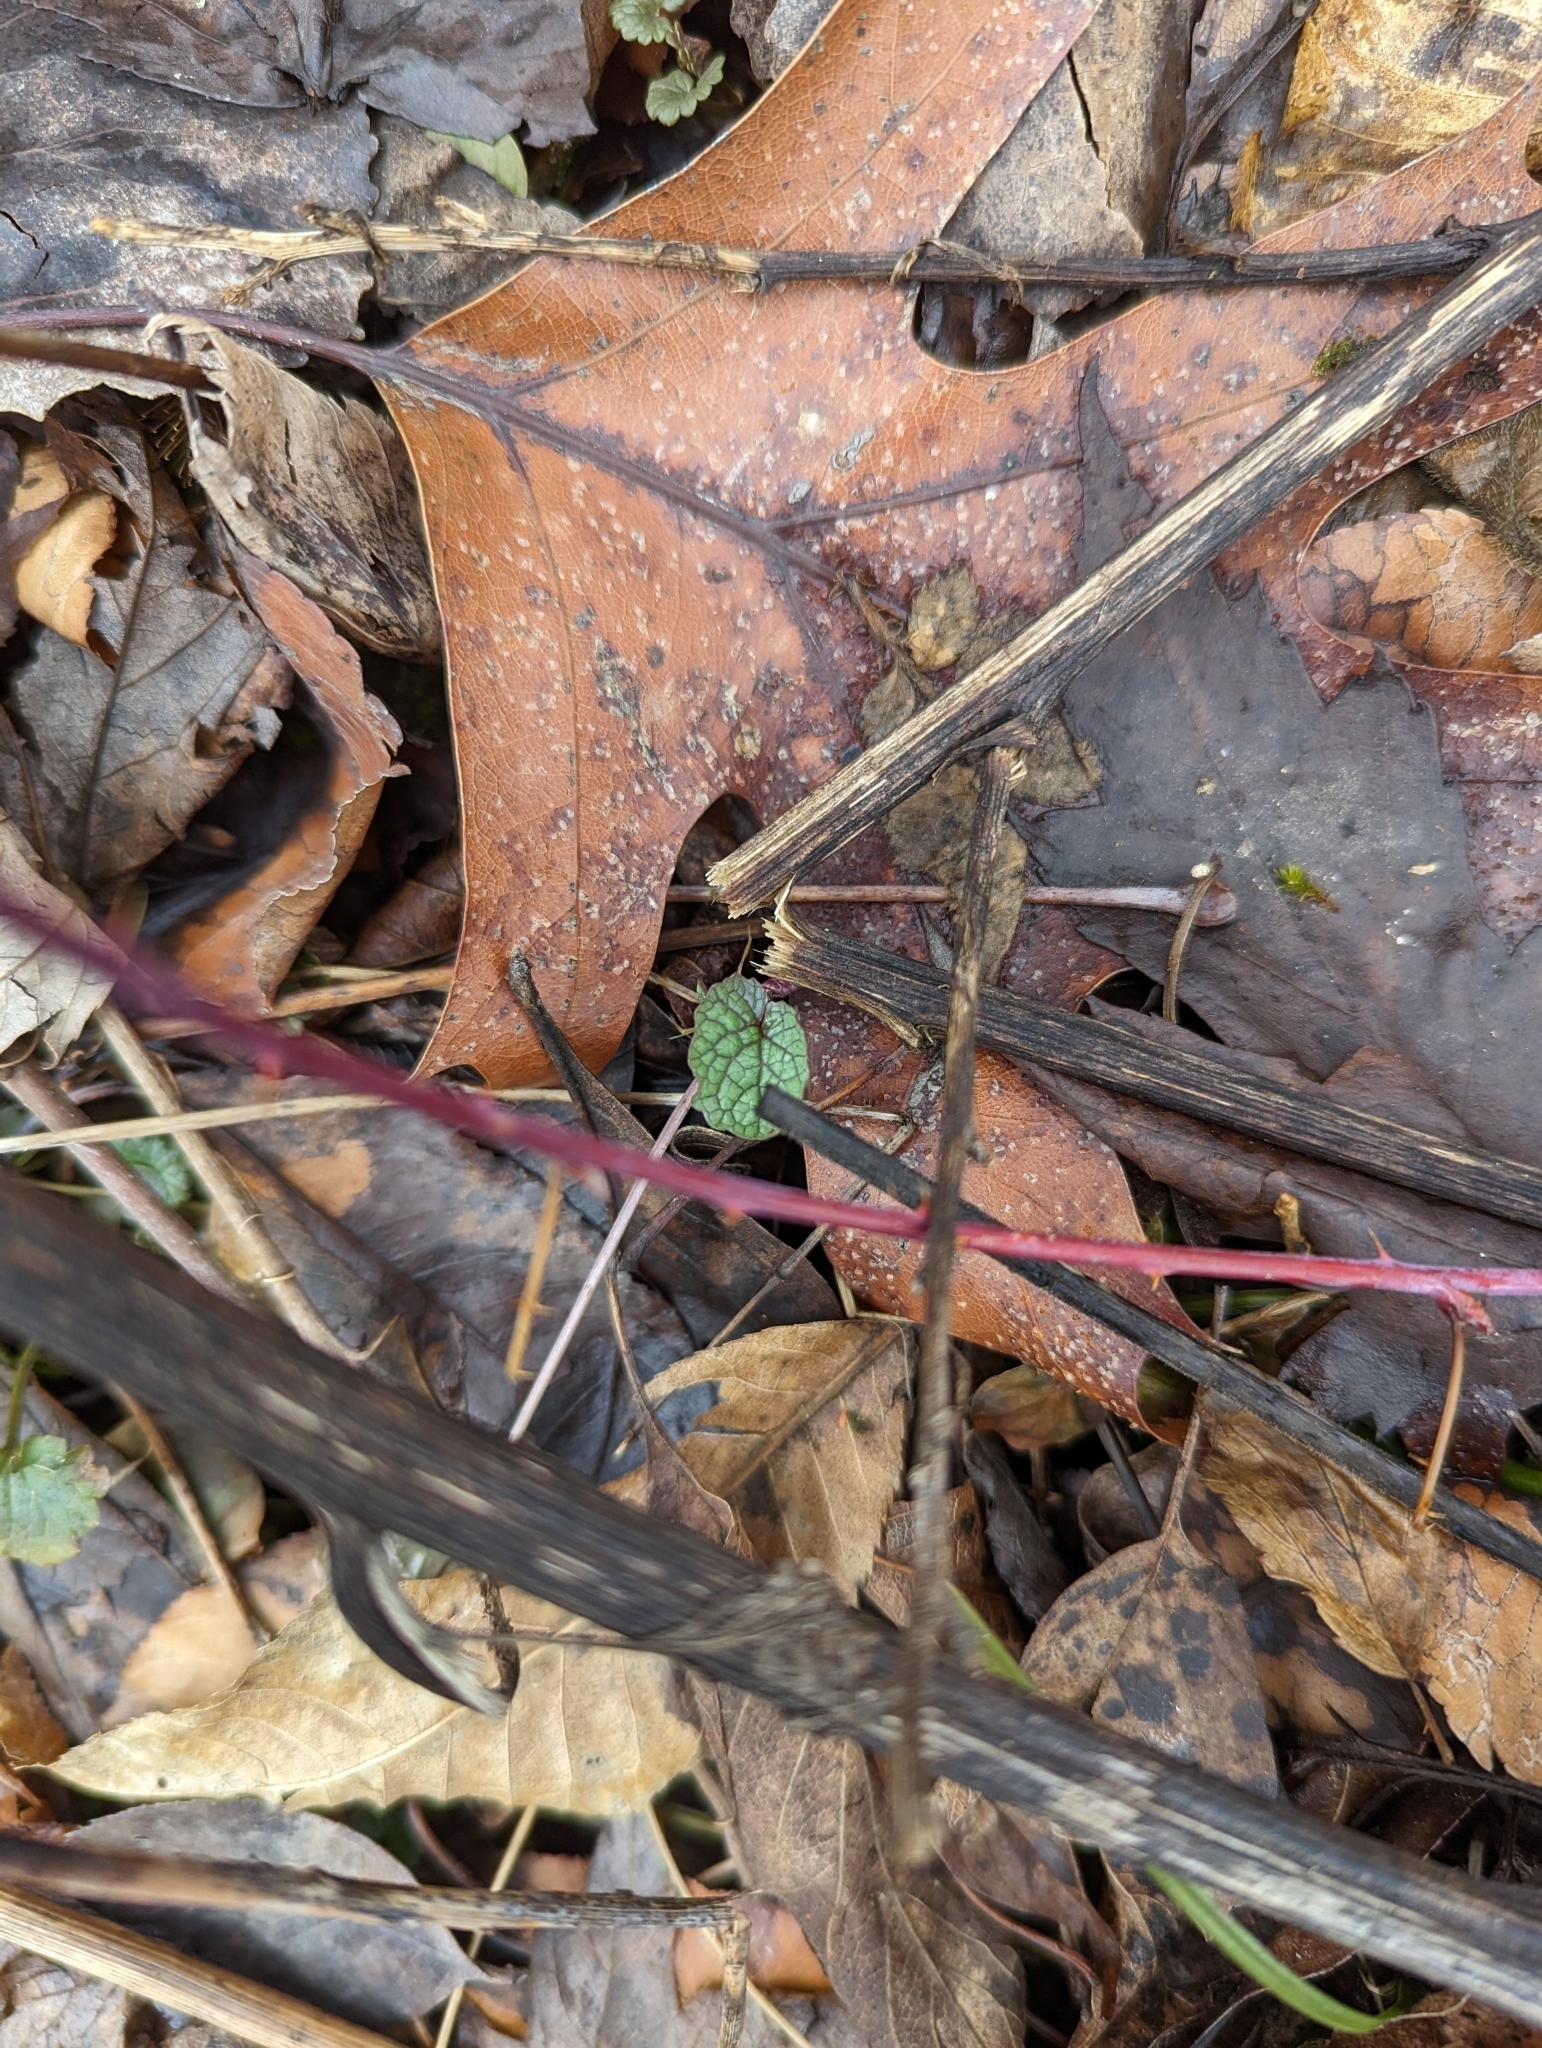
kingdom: Plantae
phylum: Tracheophyta
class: Magnoliopsida
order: Brassicales
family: Brassicaceae
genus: Alliaria
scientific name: Alliaria petiolata
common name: Garlic mustard
